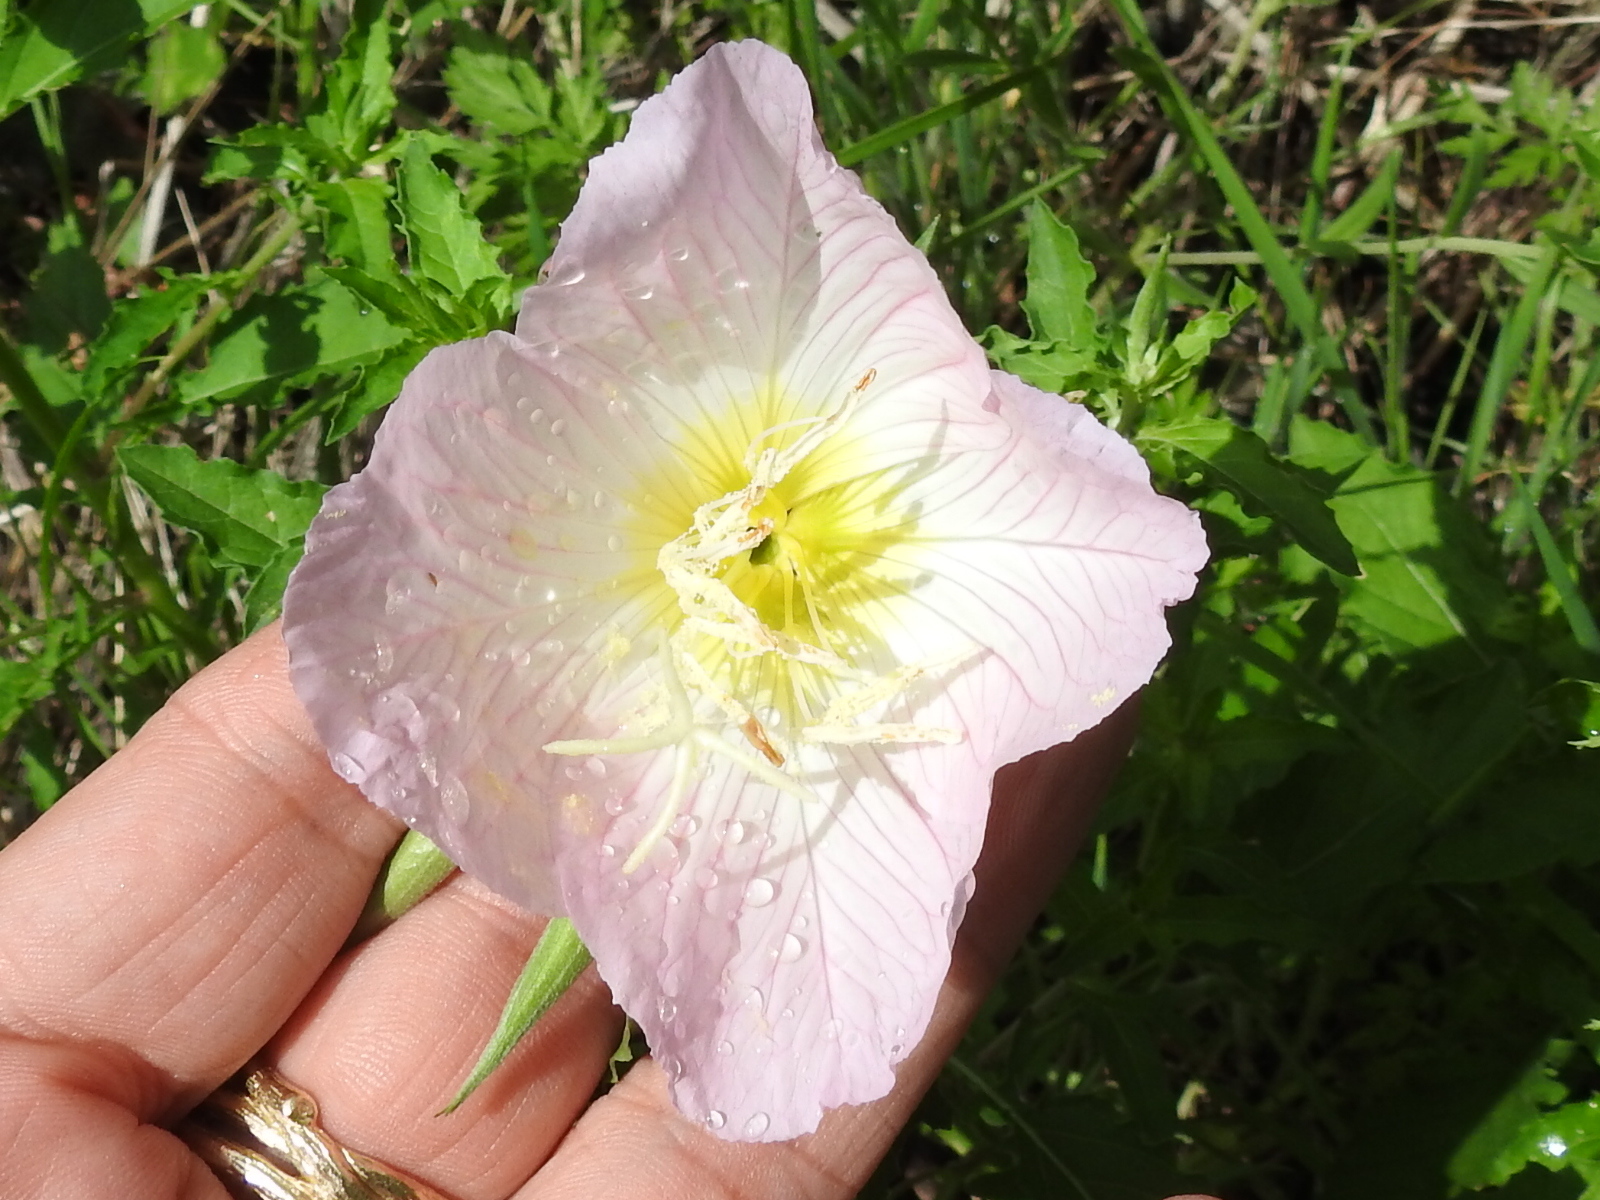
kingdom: Plantae
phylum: Tracheophyta
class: Magnoliopsida
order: Myrtales
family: Onagraceae
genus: Oenothera
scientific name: Oenothera speciosa
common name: White evening-primrose
